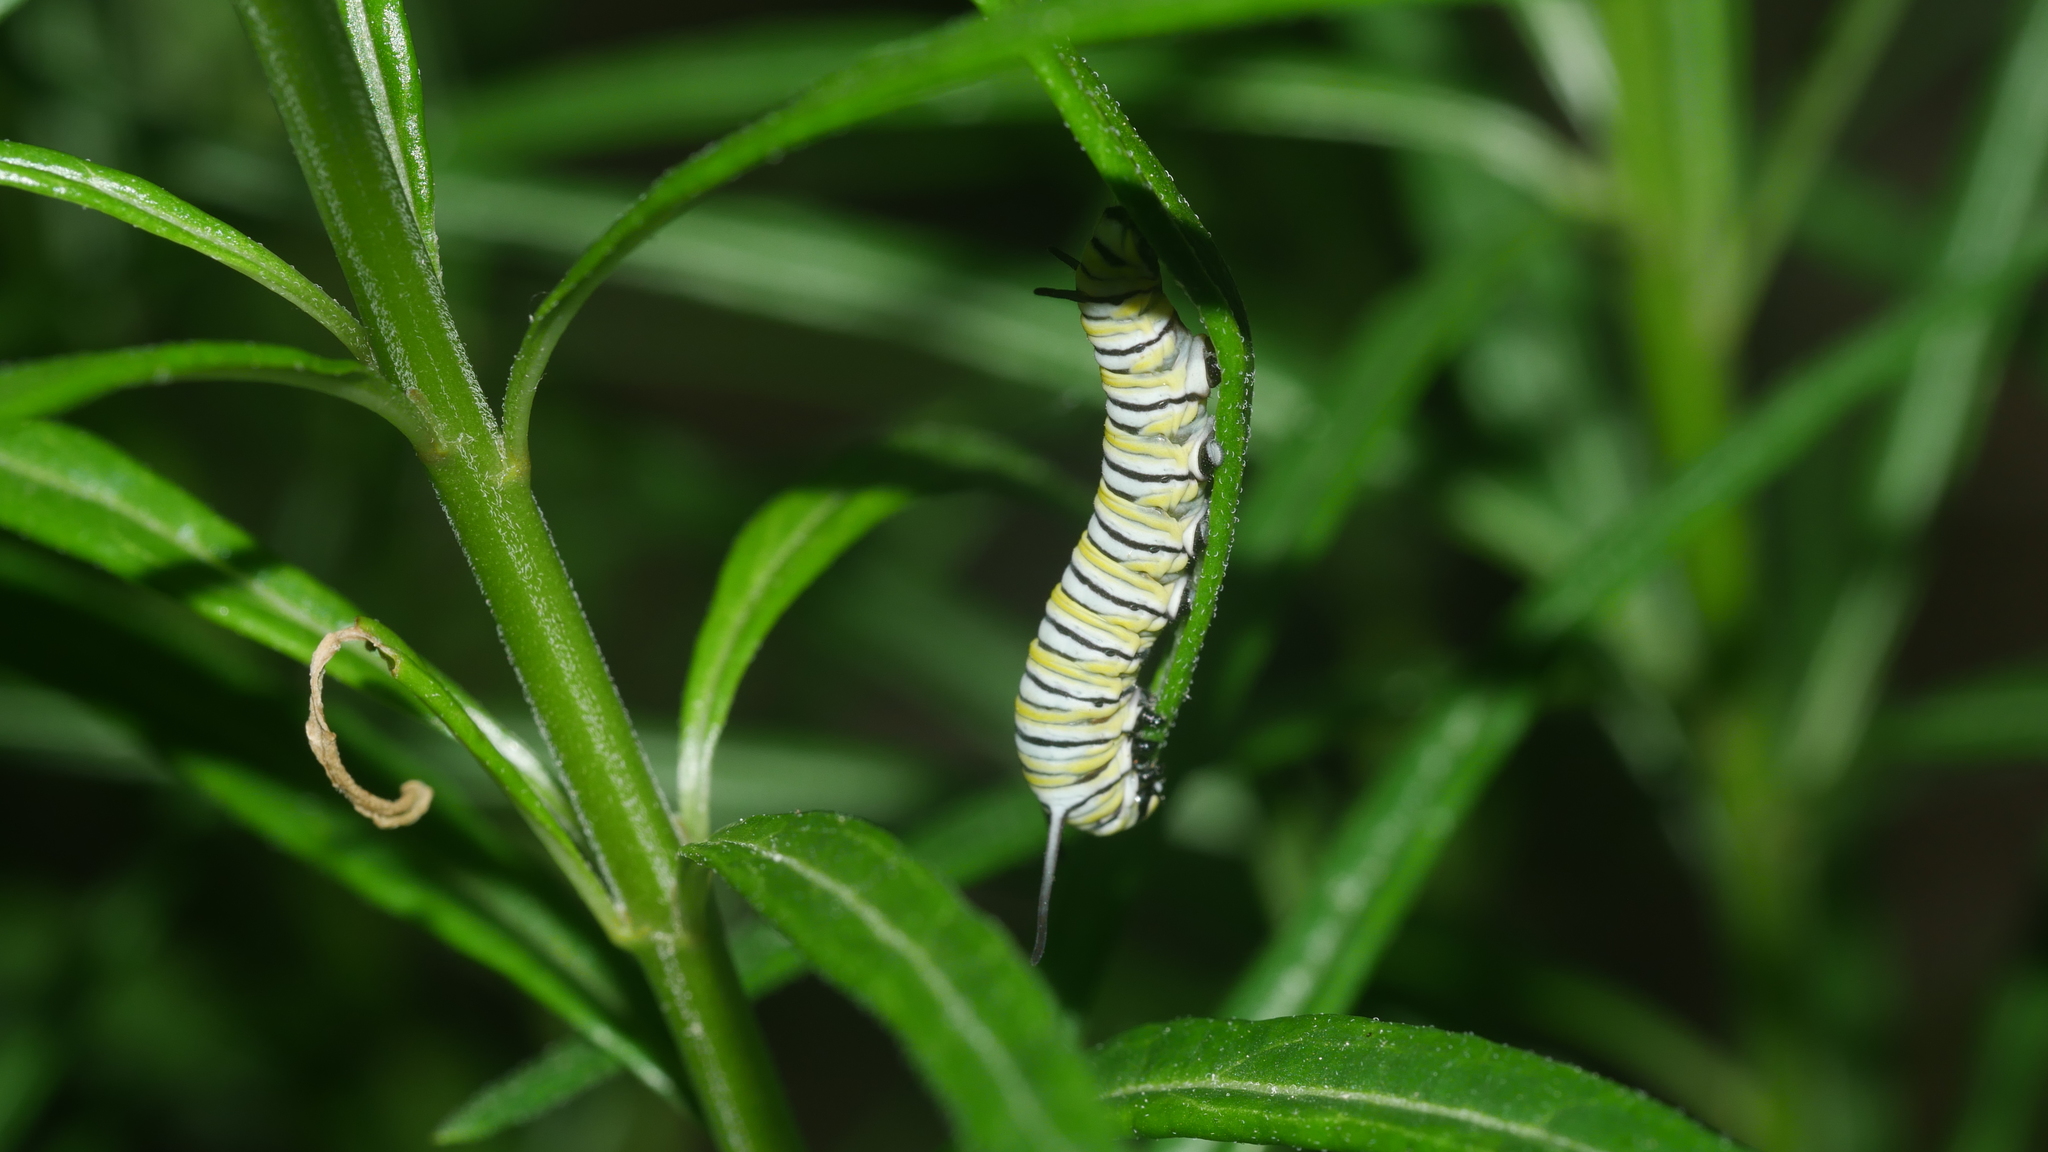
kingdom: Animalia
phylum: Arthropoda
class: Insecta
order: Lepidoptera
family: Nymphalidae
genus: Danaus
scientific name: Danaus plexippus
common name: Monarch
